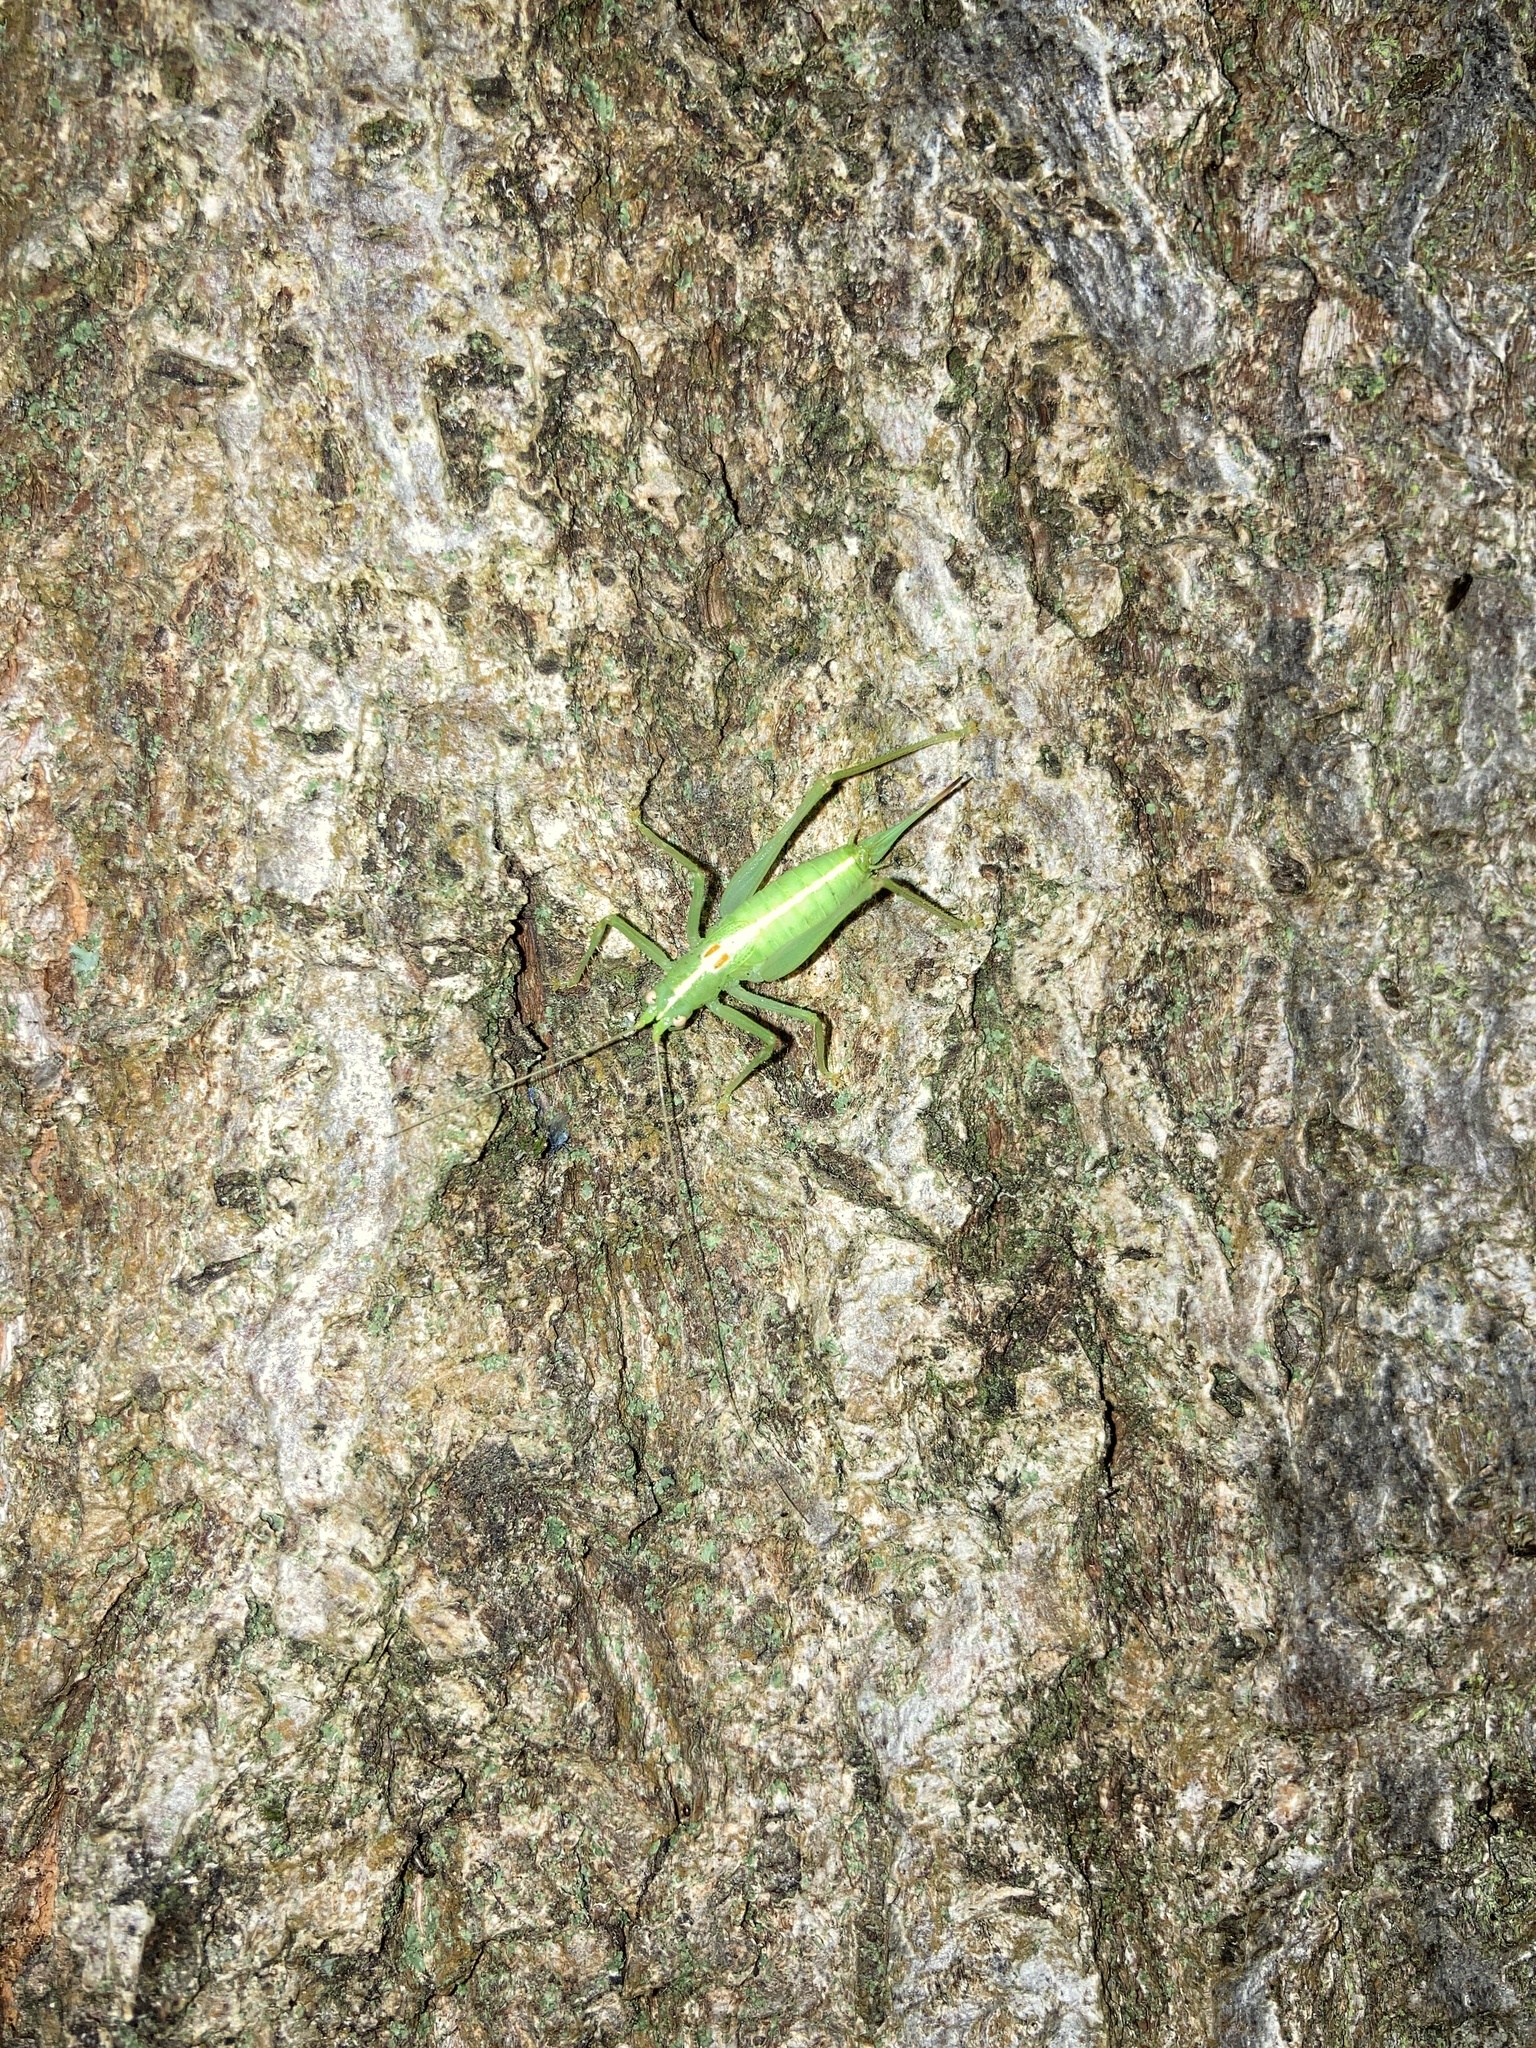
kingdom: Animalia
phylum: Arthropoda
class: Insecta
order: Orthoptera
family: Tettigoniidae
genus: Meconema
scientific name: Meconema meridionale
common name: Southern oak bush-cricket
